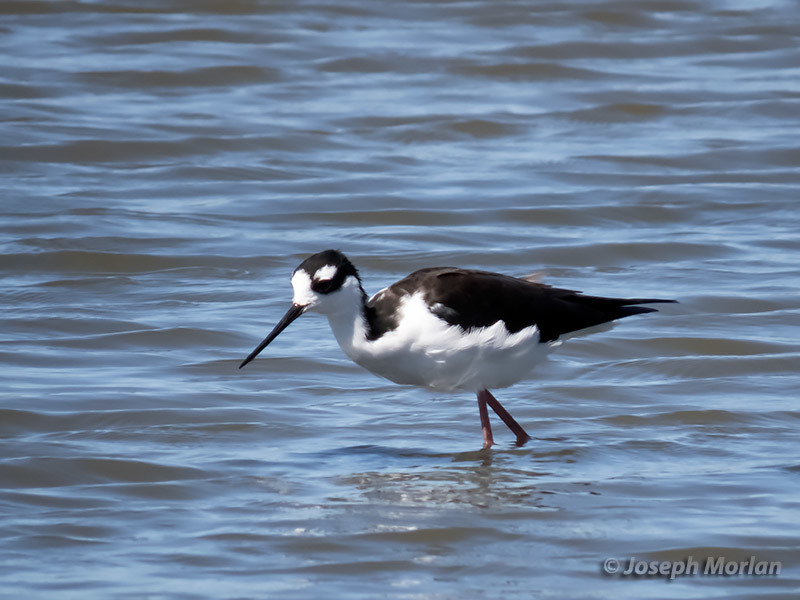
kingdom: Animalia
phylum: Chordata
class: Aves
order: Charadriiformes
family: Recurvirostridae
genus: Himantopus
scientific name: Himantopus mexicanus
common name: Black-necked stilt
